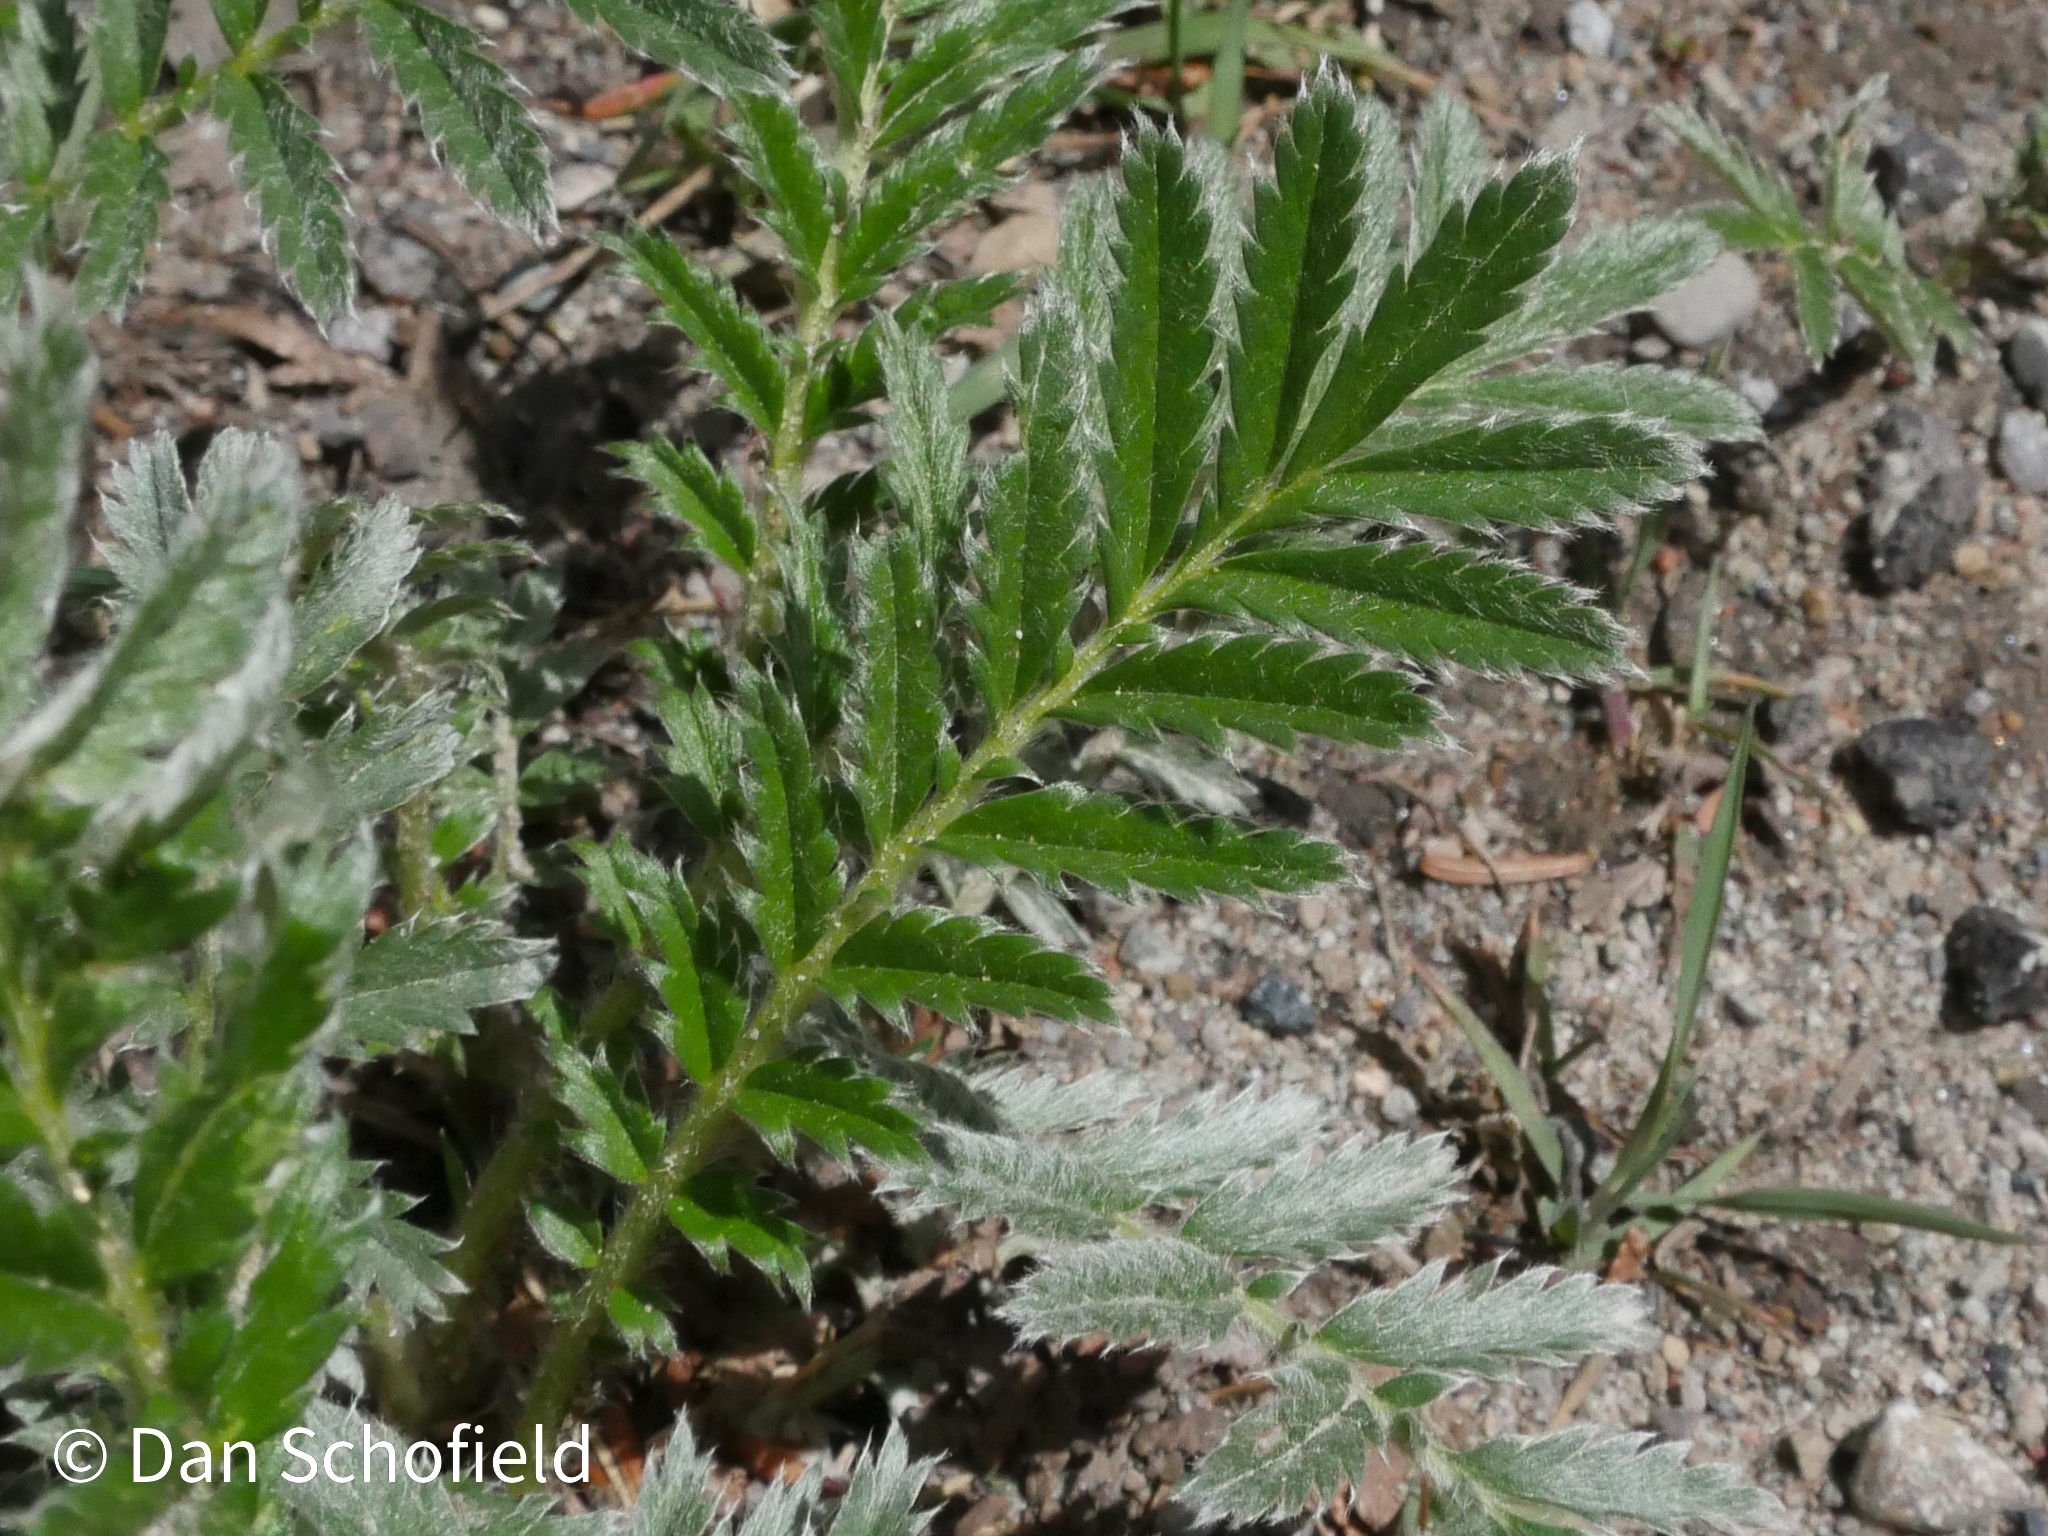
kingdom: Plantae
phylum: Tracheophyta
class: Magnoliopsida
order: Rosales
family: Rosaceae
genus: Argentina
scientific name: Argentina anserina
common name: Common silverweed
